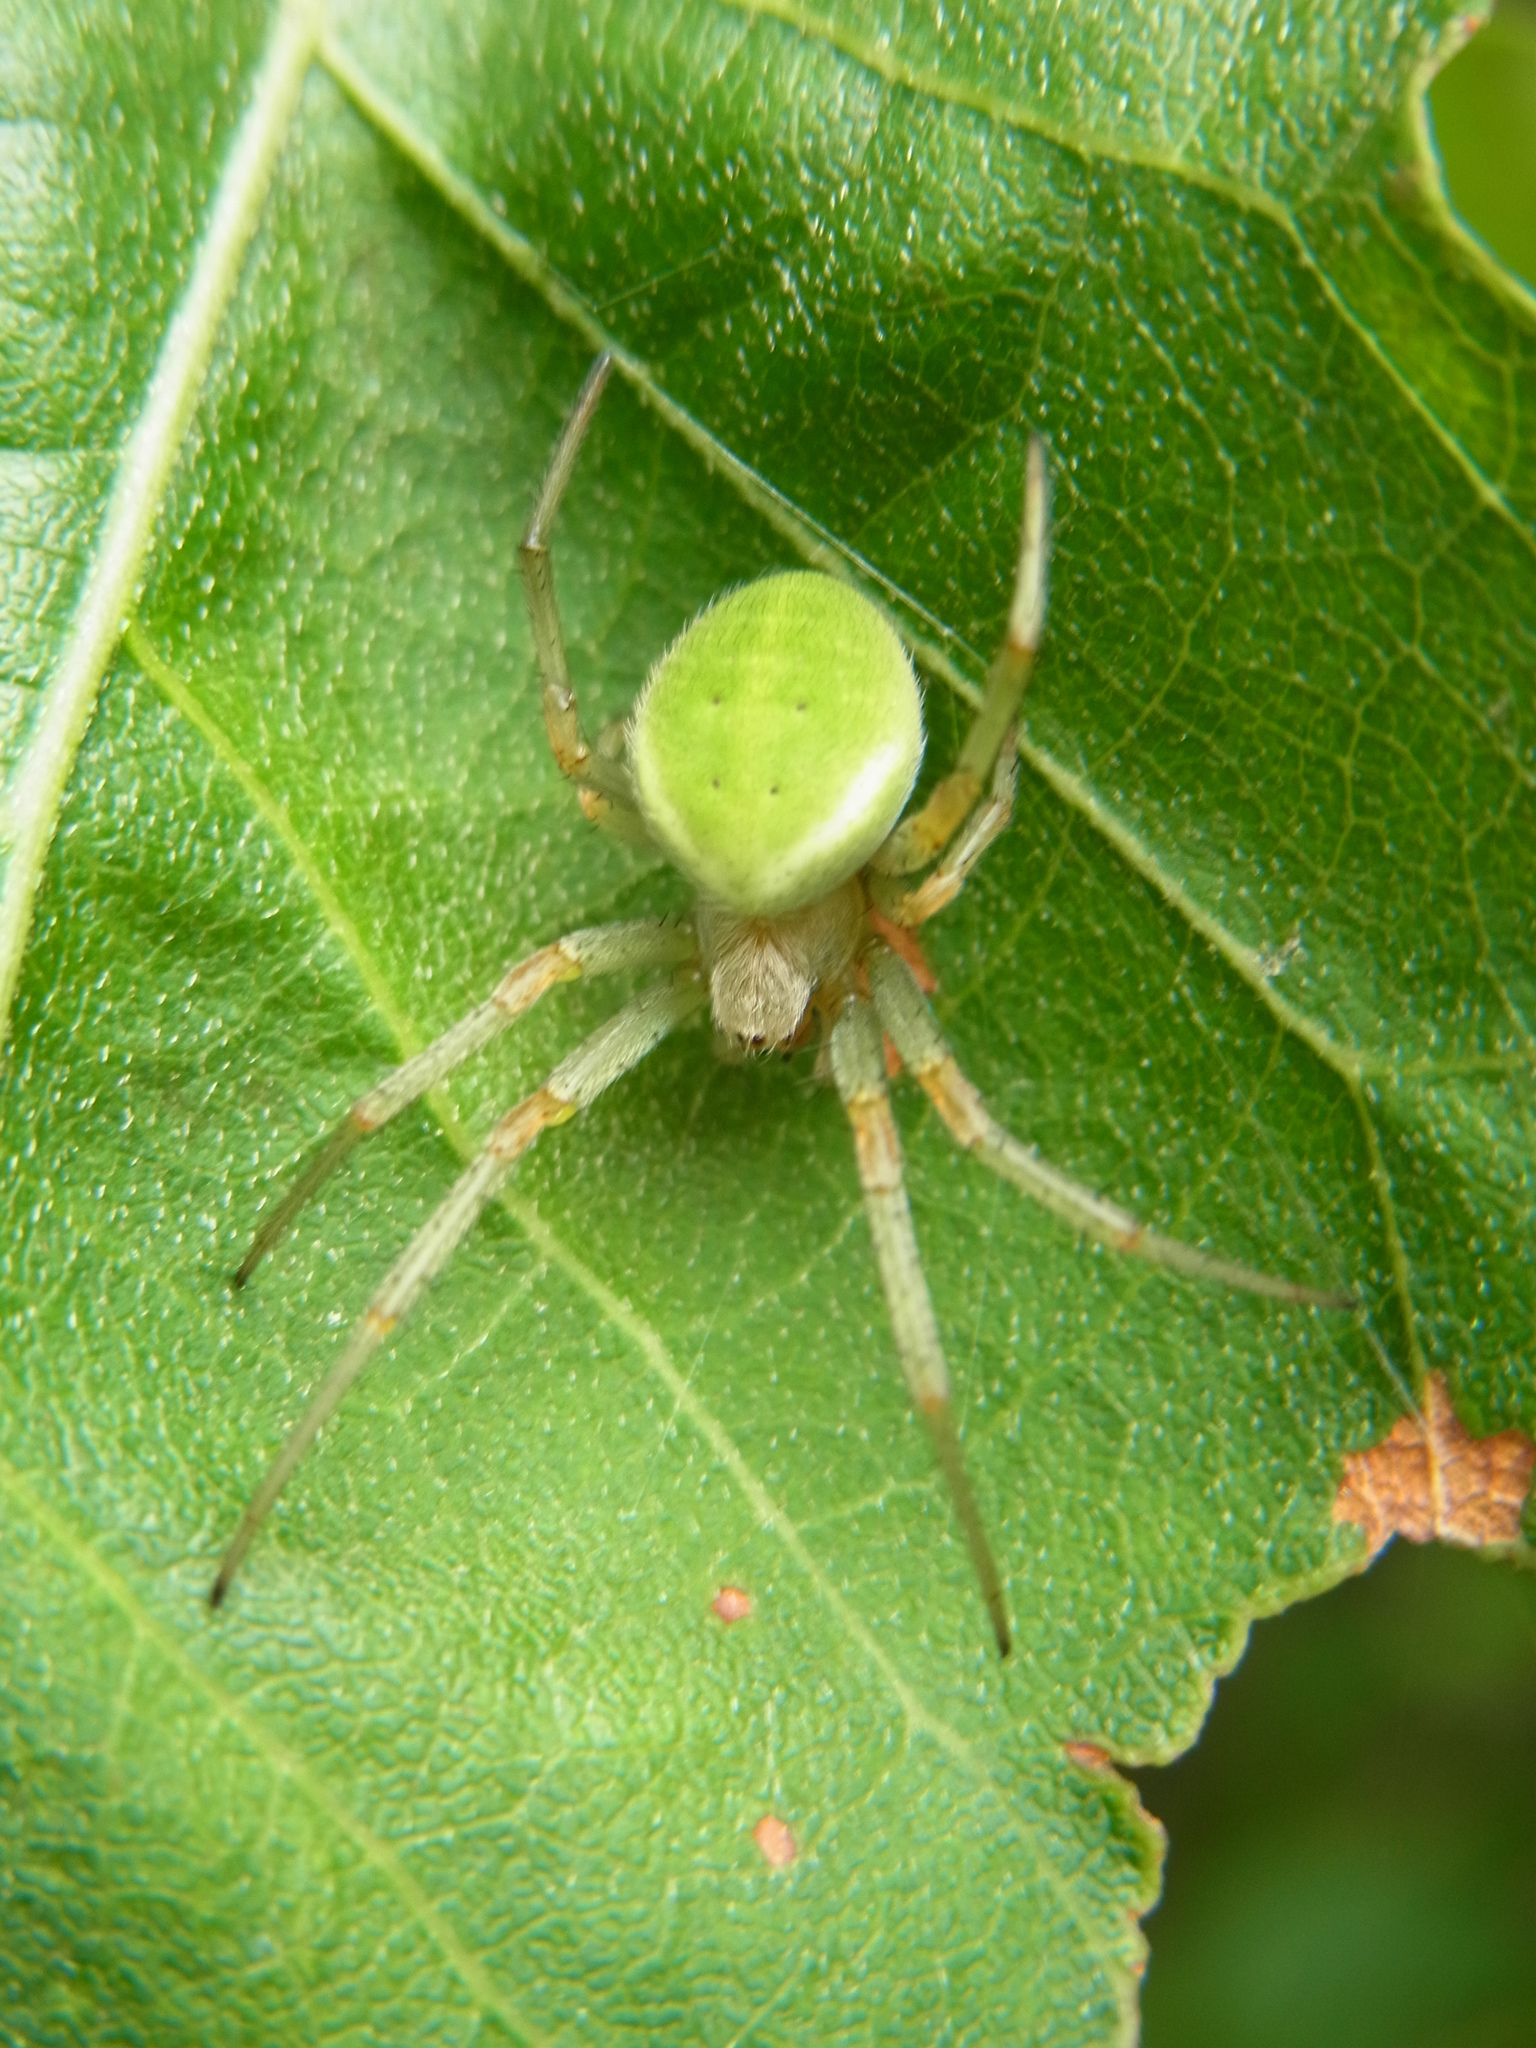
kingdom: Animalia
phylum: Arthropoda
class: Arachnida
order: Araneae
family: Araneidae
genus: Neoscona
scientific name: Neoscona scylloides
